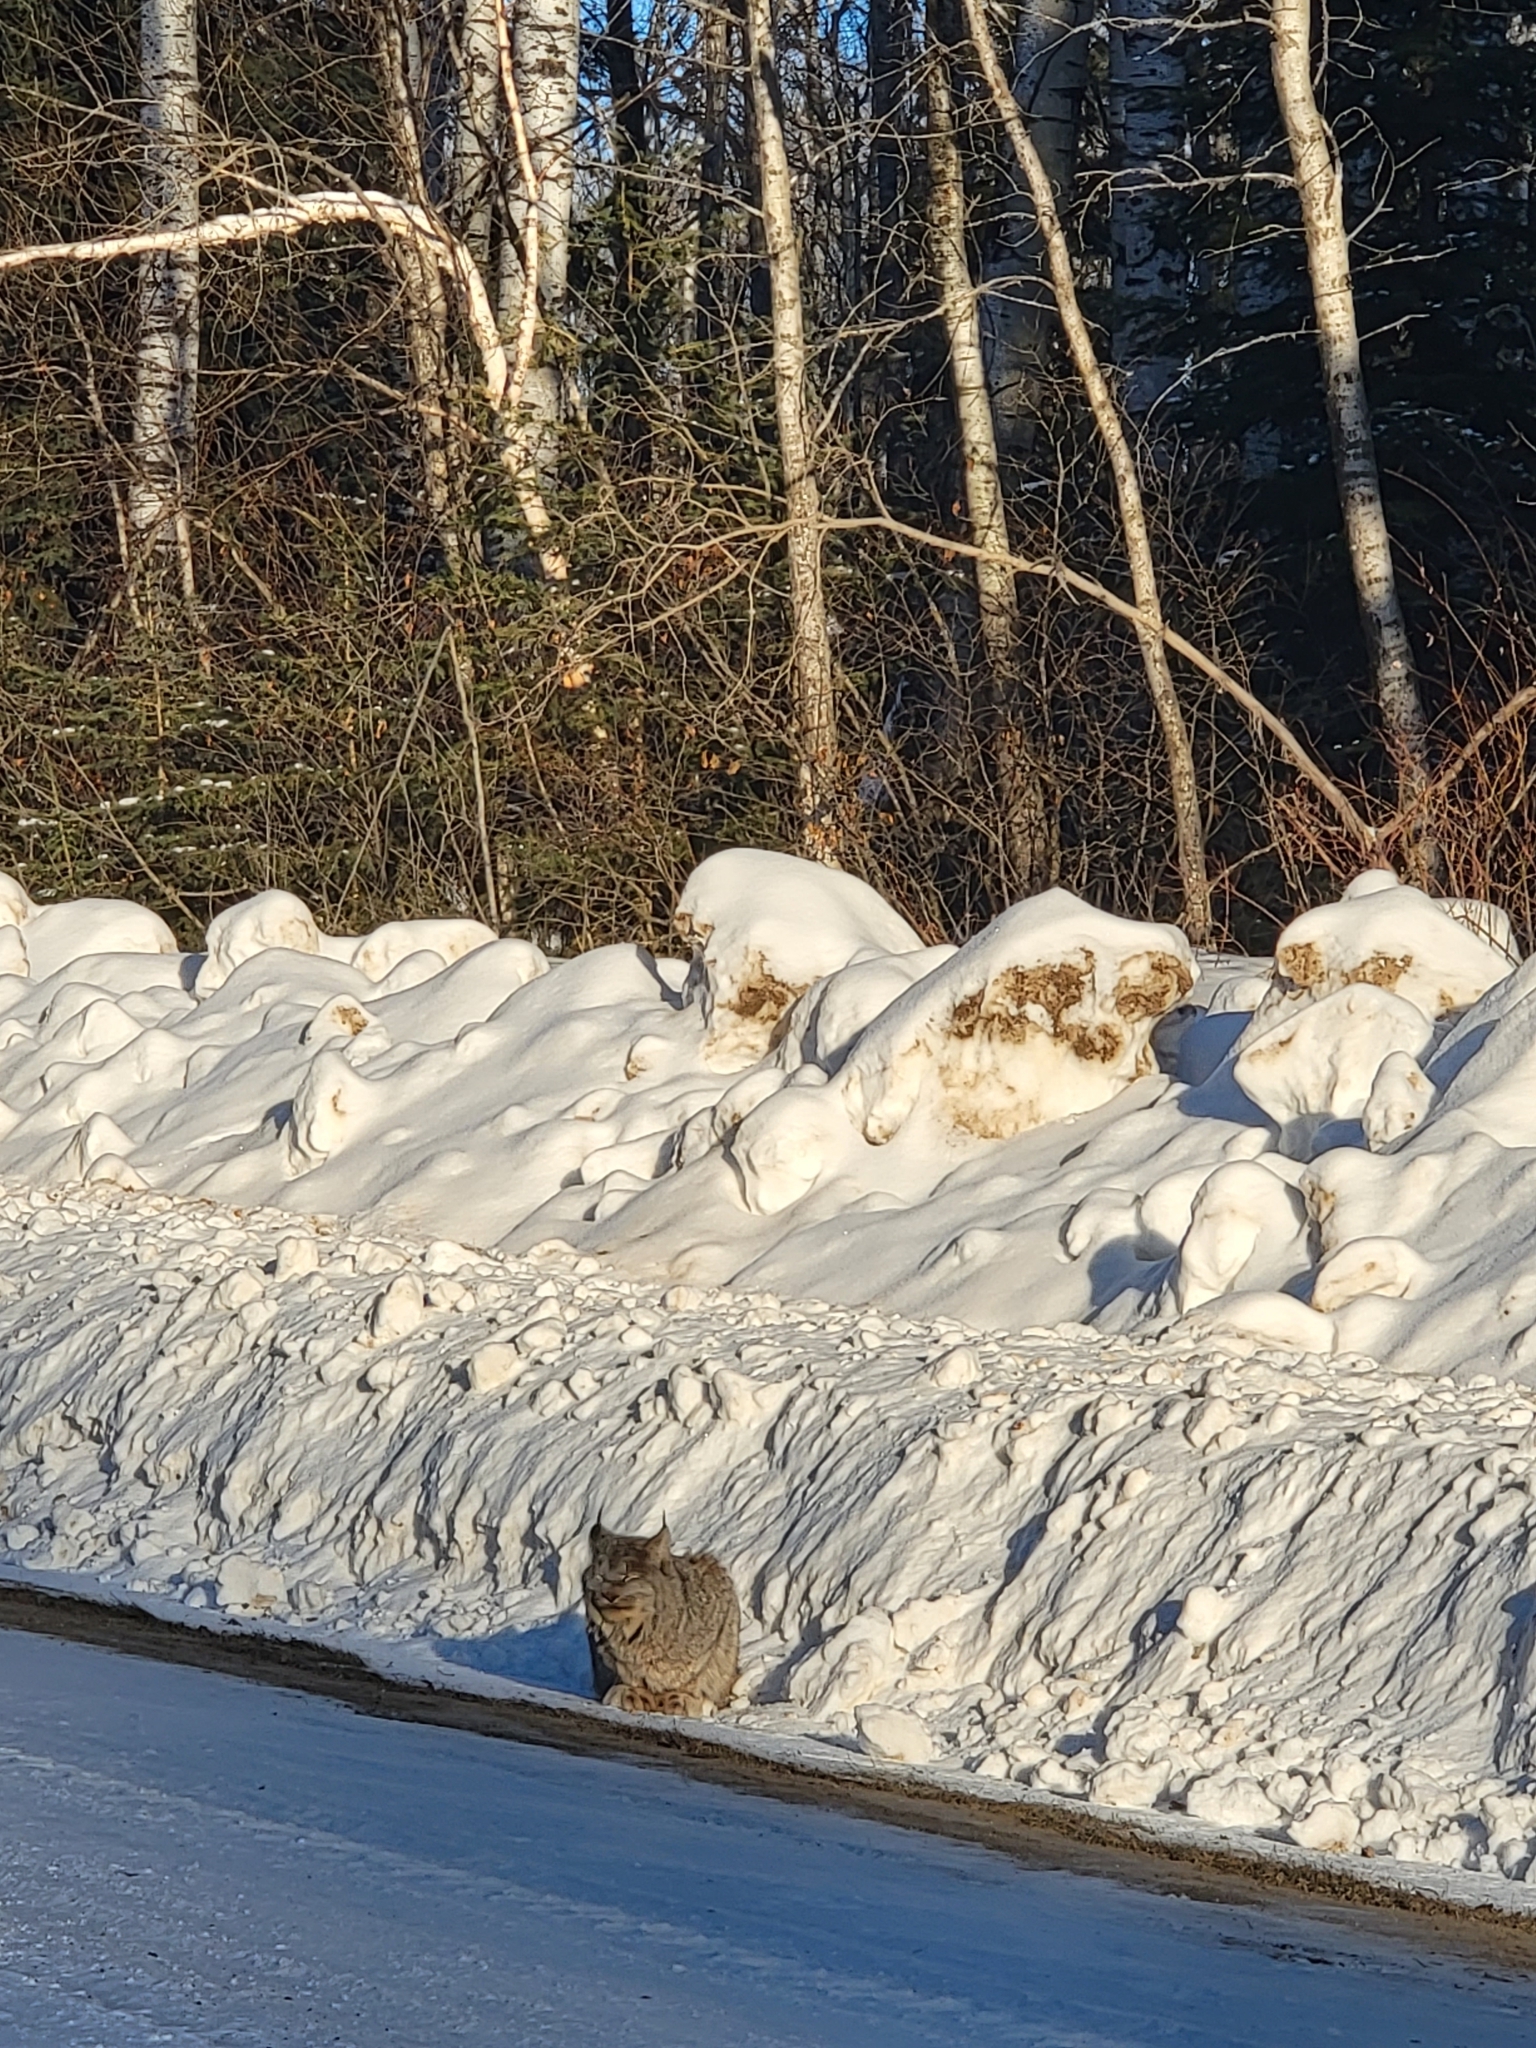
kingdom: Animalia
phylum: Chordata
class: Mammalia
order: Carnivora
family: Felidae
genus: Lynx
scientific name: Lynx canadensis
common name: Canadian lynx
